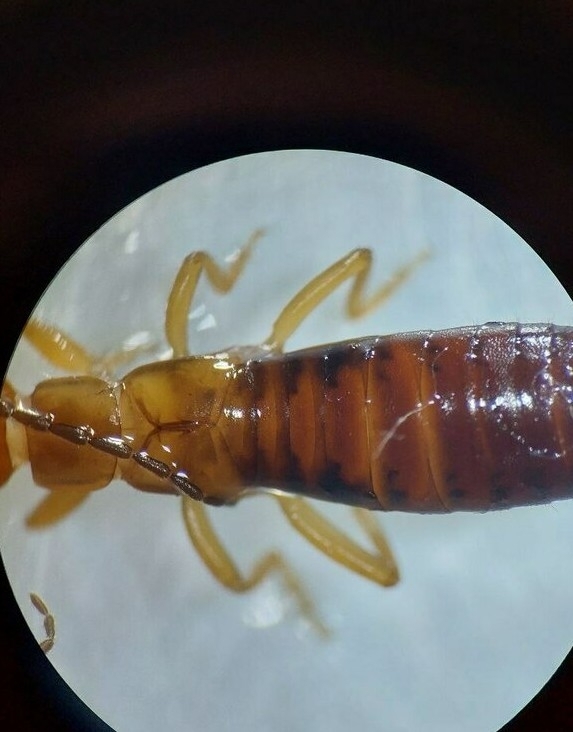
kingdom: Animalia
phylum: Arthropoda
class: Insecta
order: Dermaptera
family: Forficulidae
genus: Forficula
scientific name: Forficula lesnei
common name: Lesne's earwig
